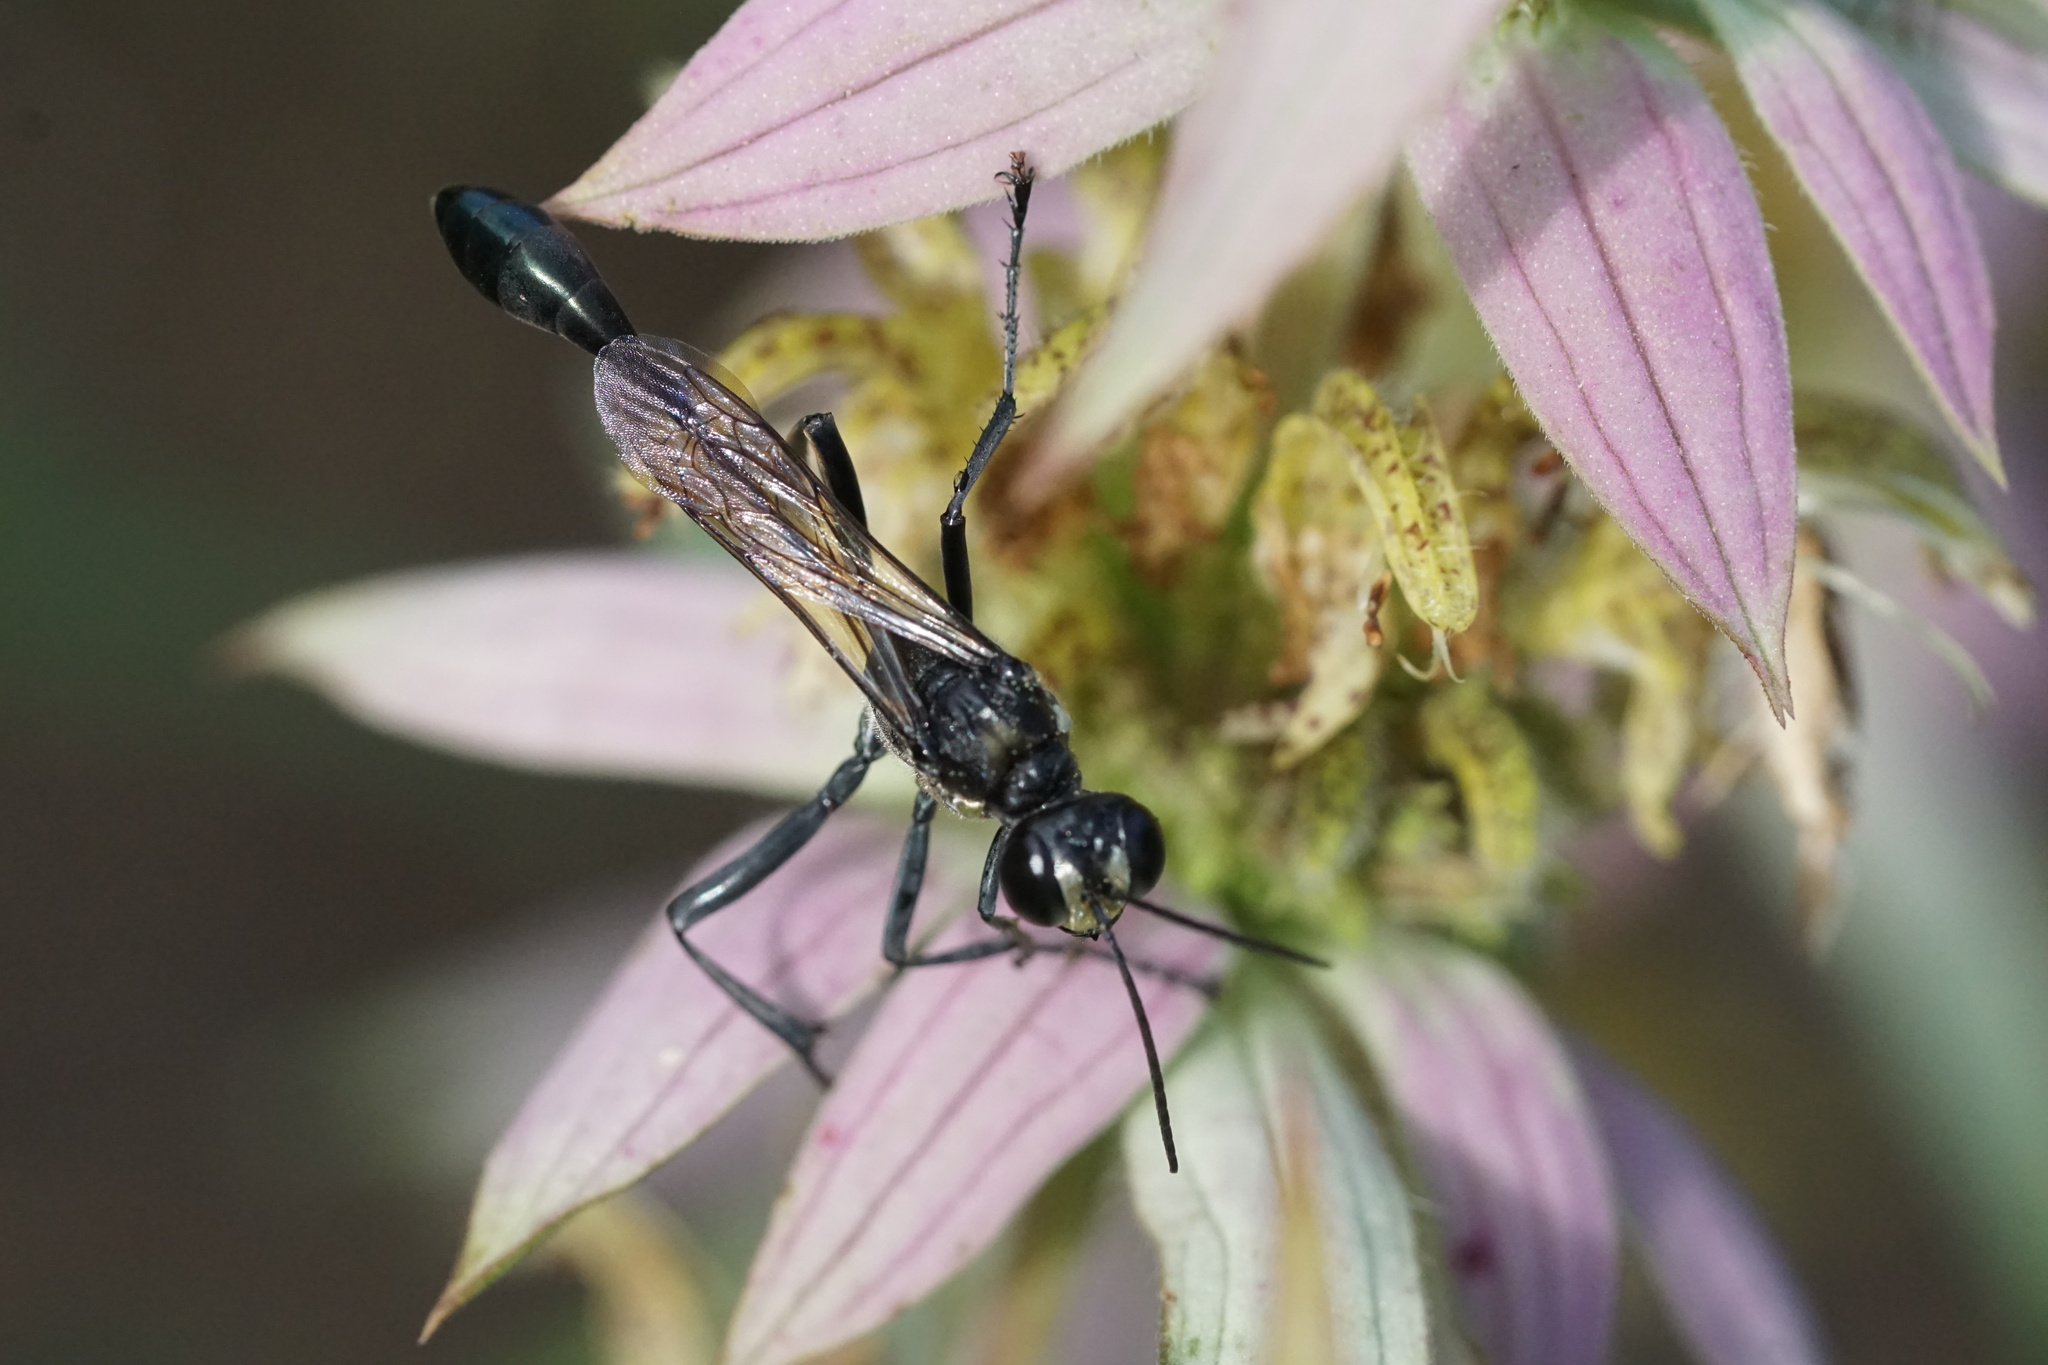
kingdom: Animalia
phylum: Arthropoda
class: Insecta
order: Hymenoptera
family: Sphecidae
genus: Eremnophila
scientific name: Eremnophila aureonotata
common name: Gold-marked thread-waisted wasp
